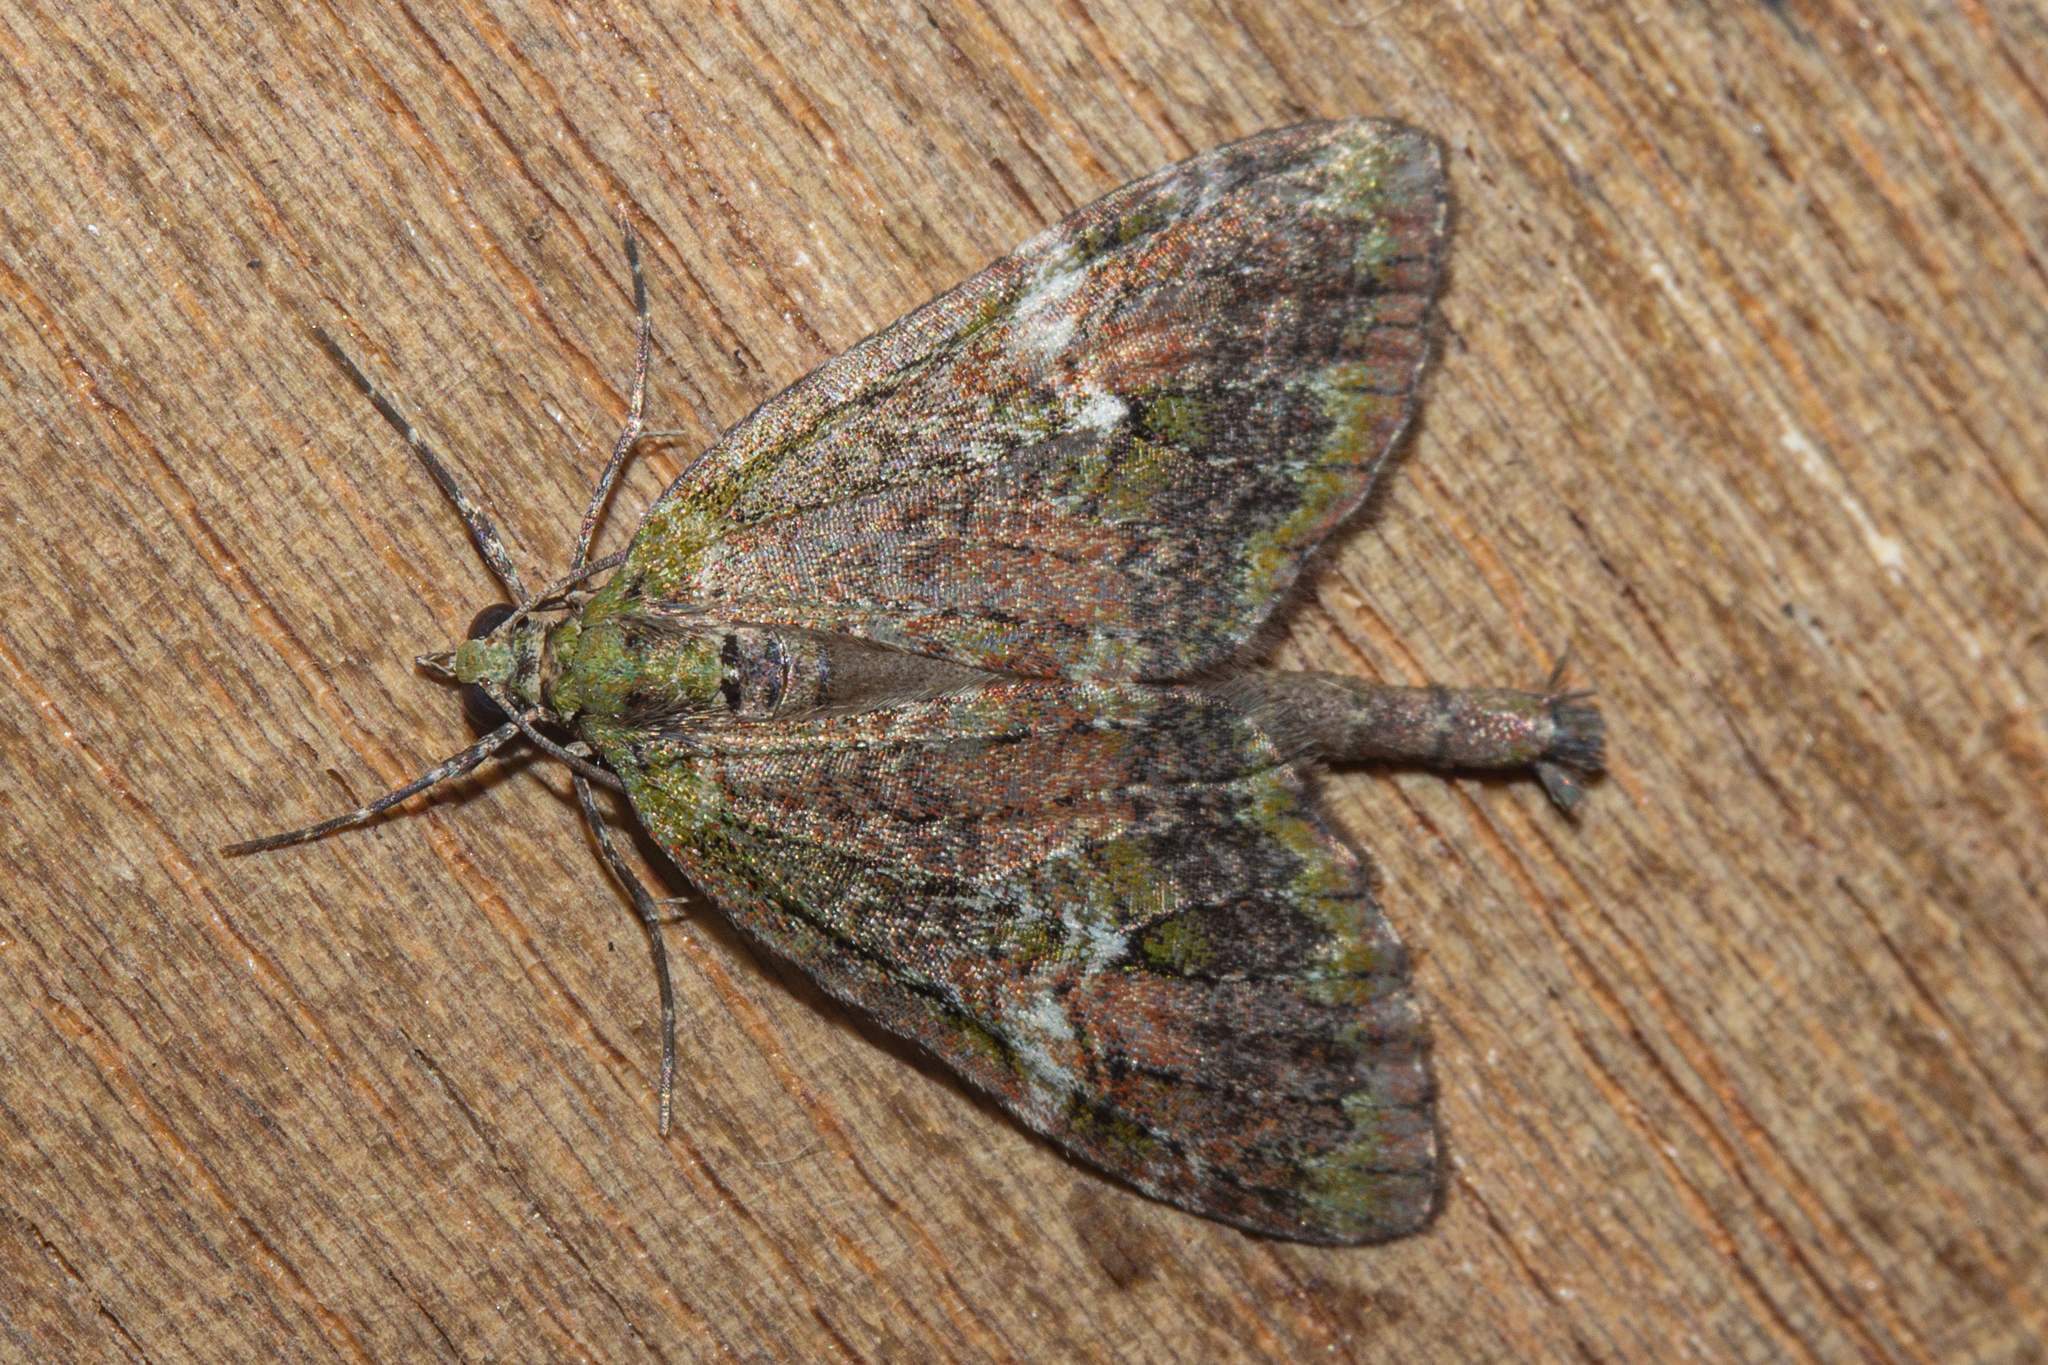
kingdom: Animalia
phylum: Arthropoda
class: Insecta
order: Lepidoptera
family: Geometridae
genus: Tatosoma
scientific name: Tatosoma topea
